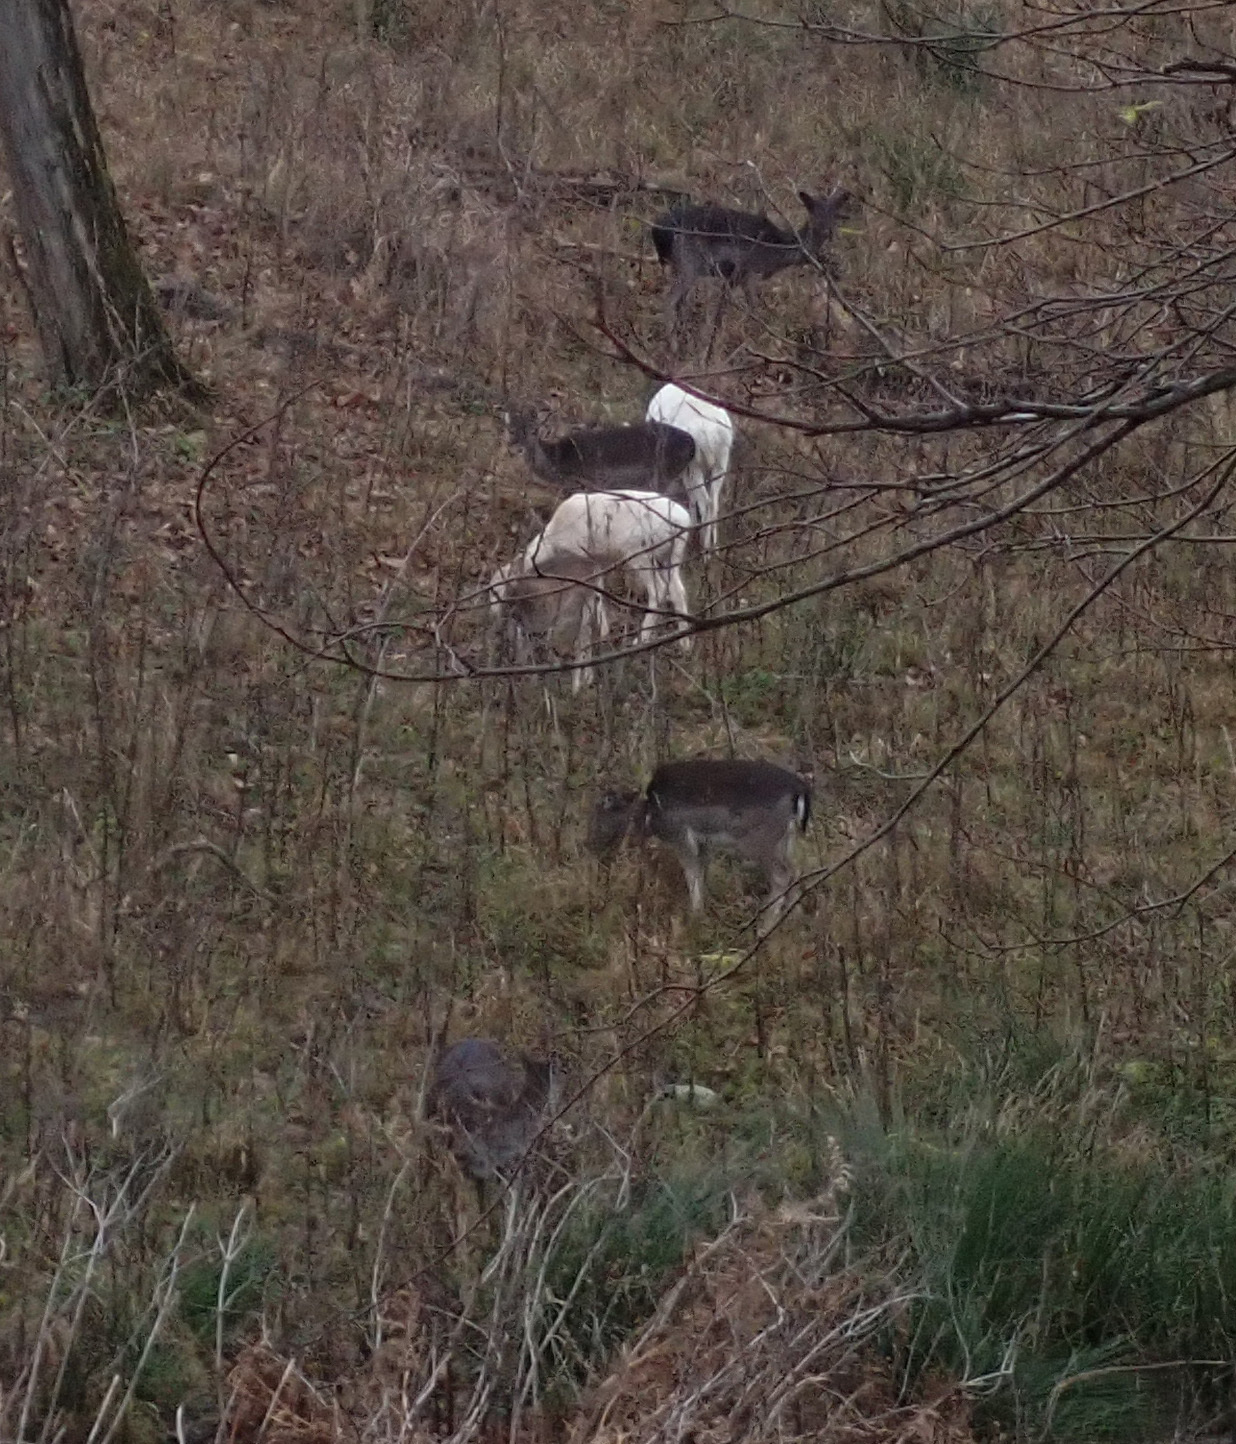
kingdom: Animalia
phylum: Chordata
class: Mammalia
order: Artiodactyla
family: Cervidae
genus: Dama
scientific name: Dama dama
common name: Fallow deer
